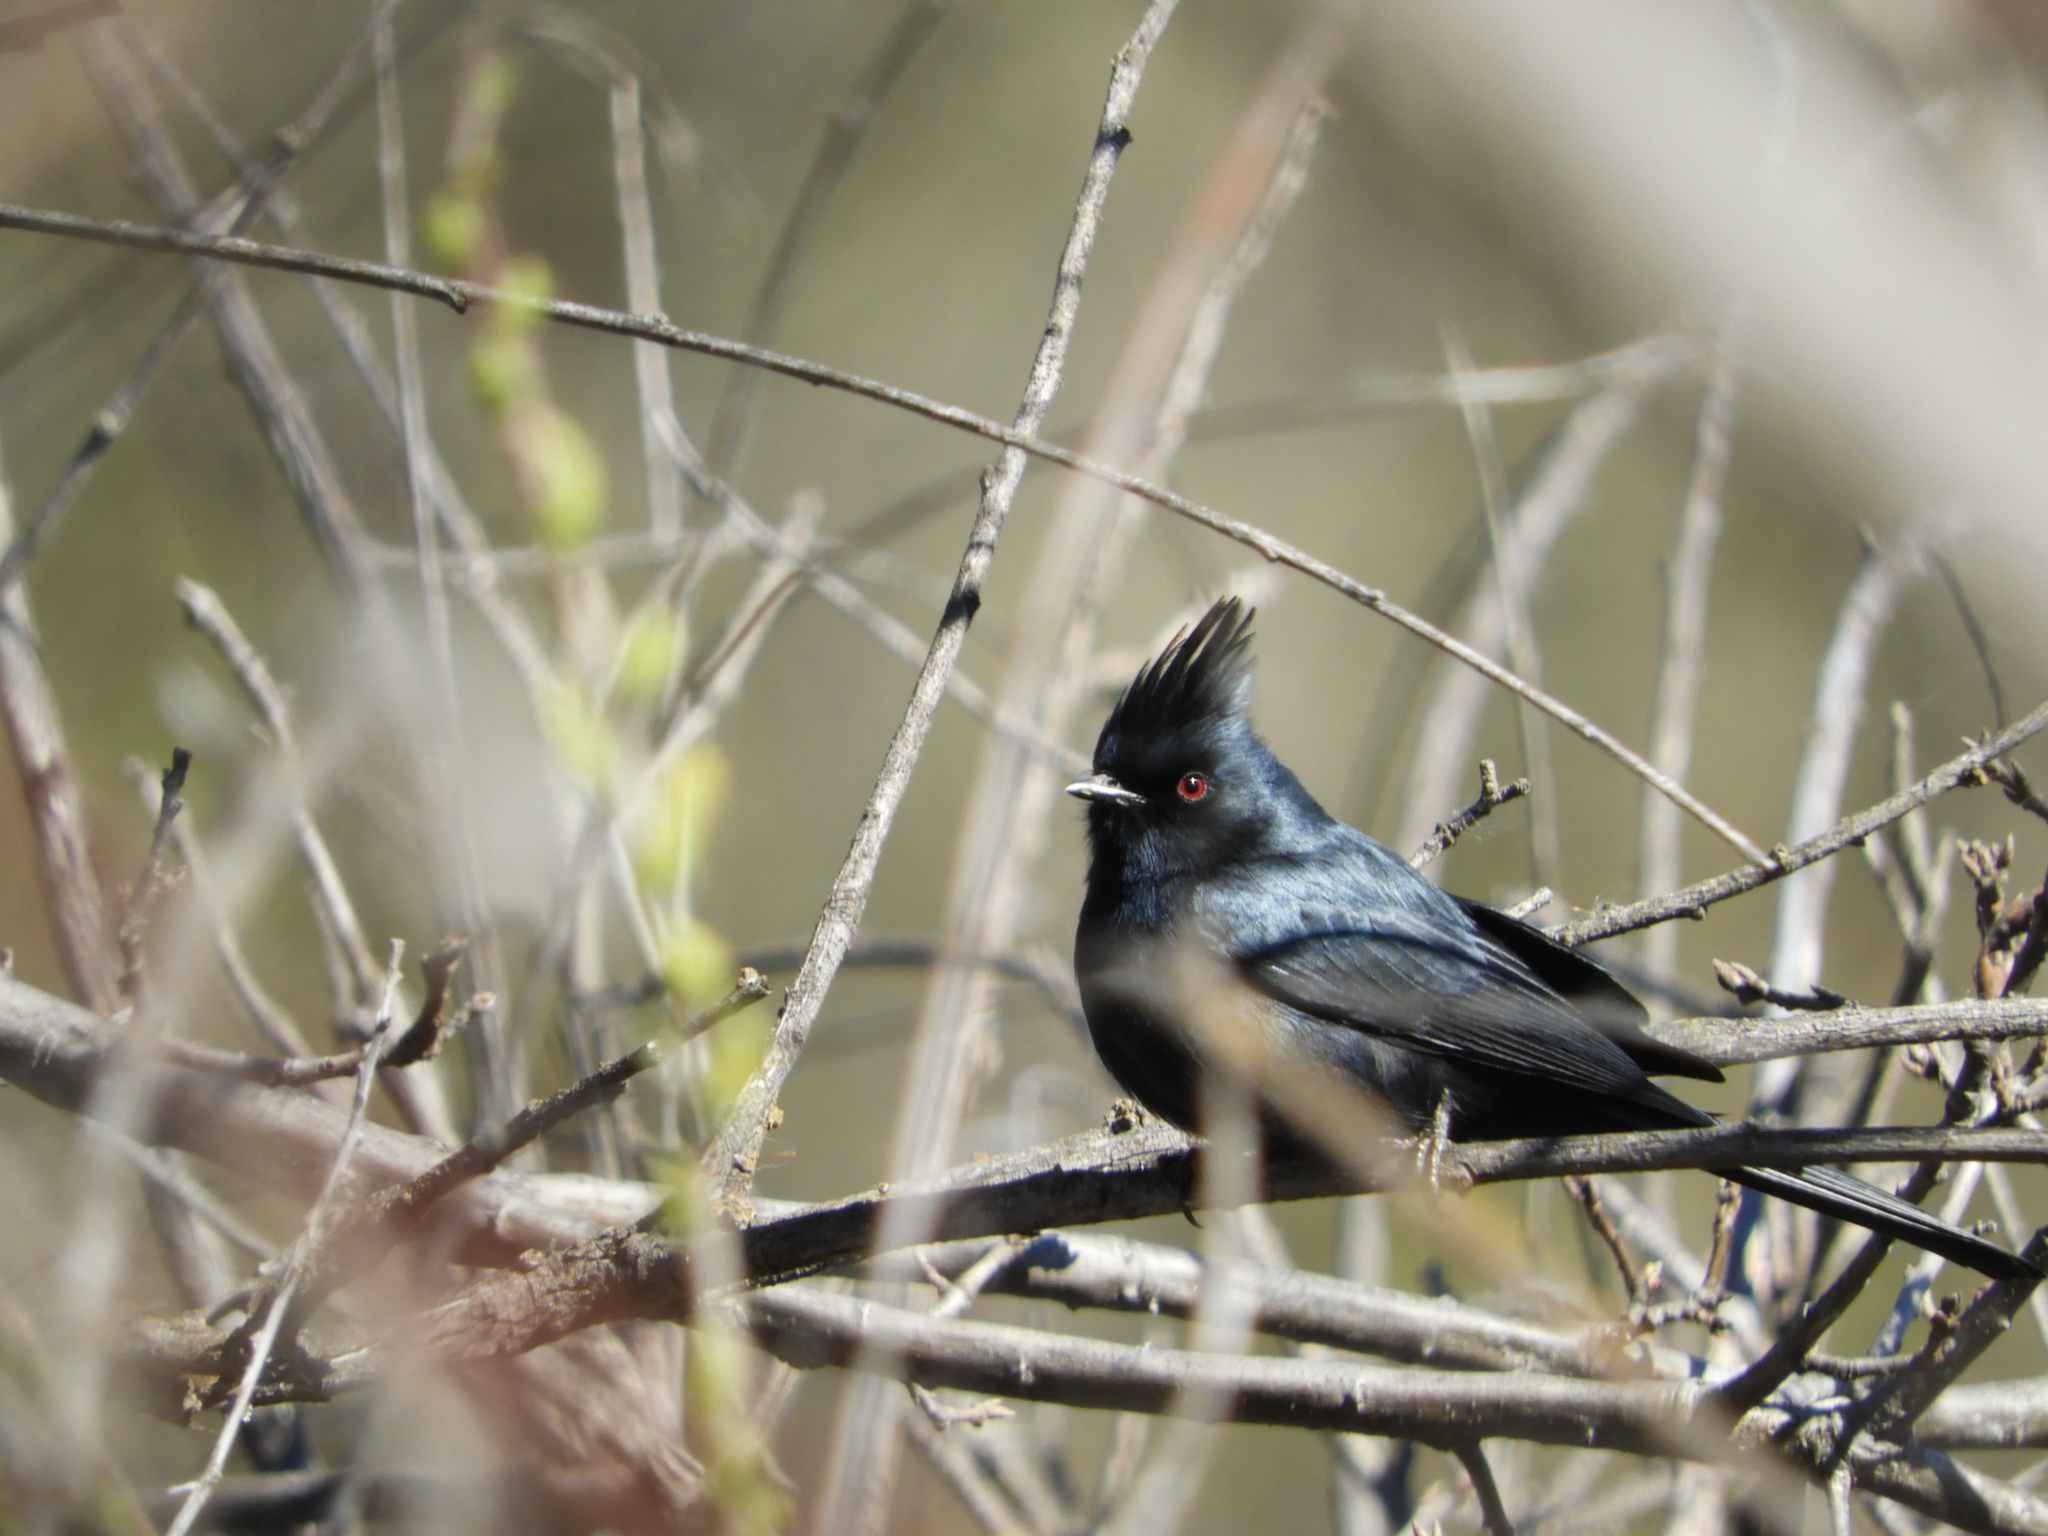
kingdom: Animalia
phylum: Chordata
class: Aves
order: Passeriformes
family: Ptilogonatidae
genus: Phainopepla
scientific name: Phainopepla nitens
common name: Phainopepla
